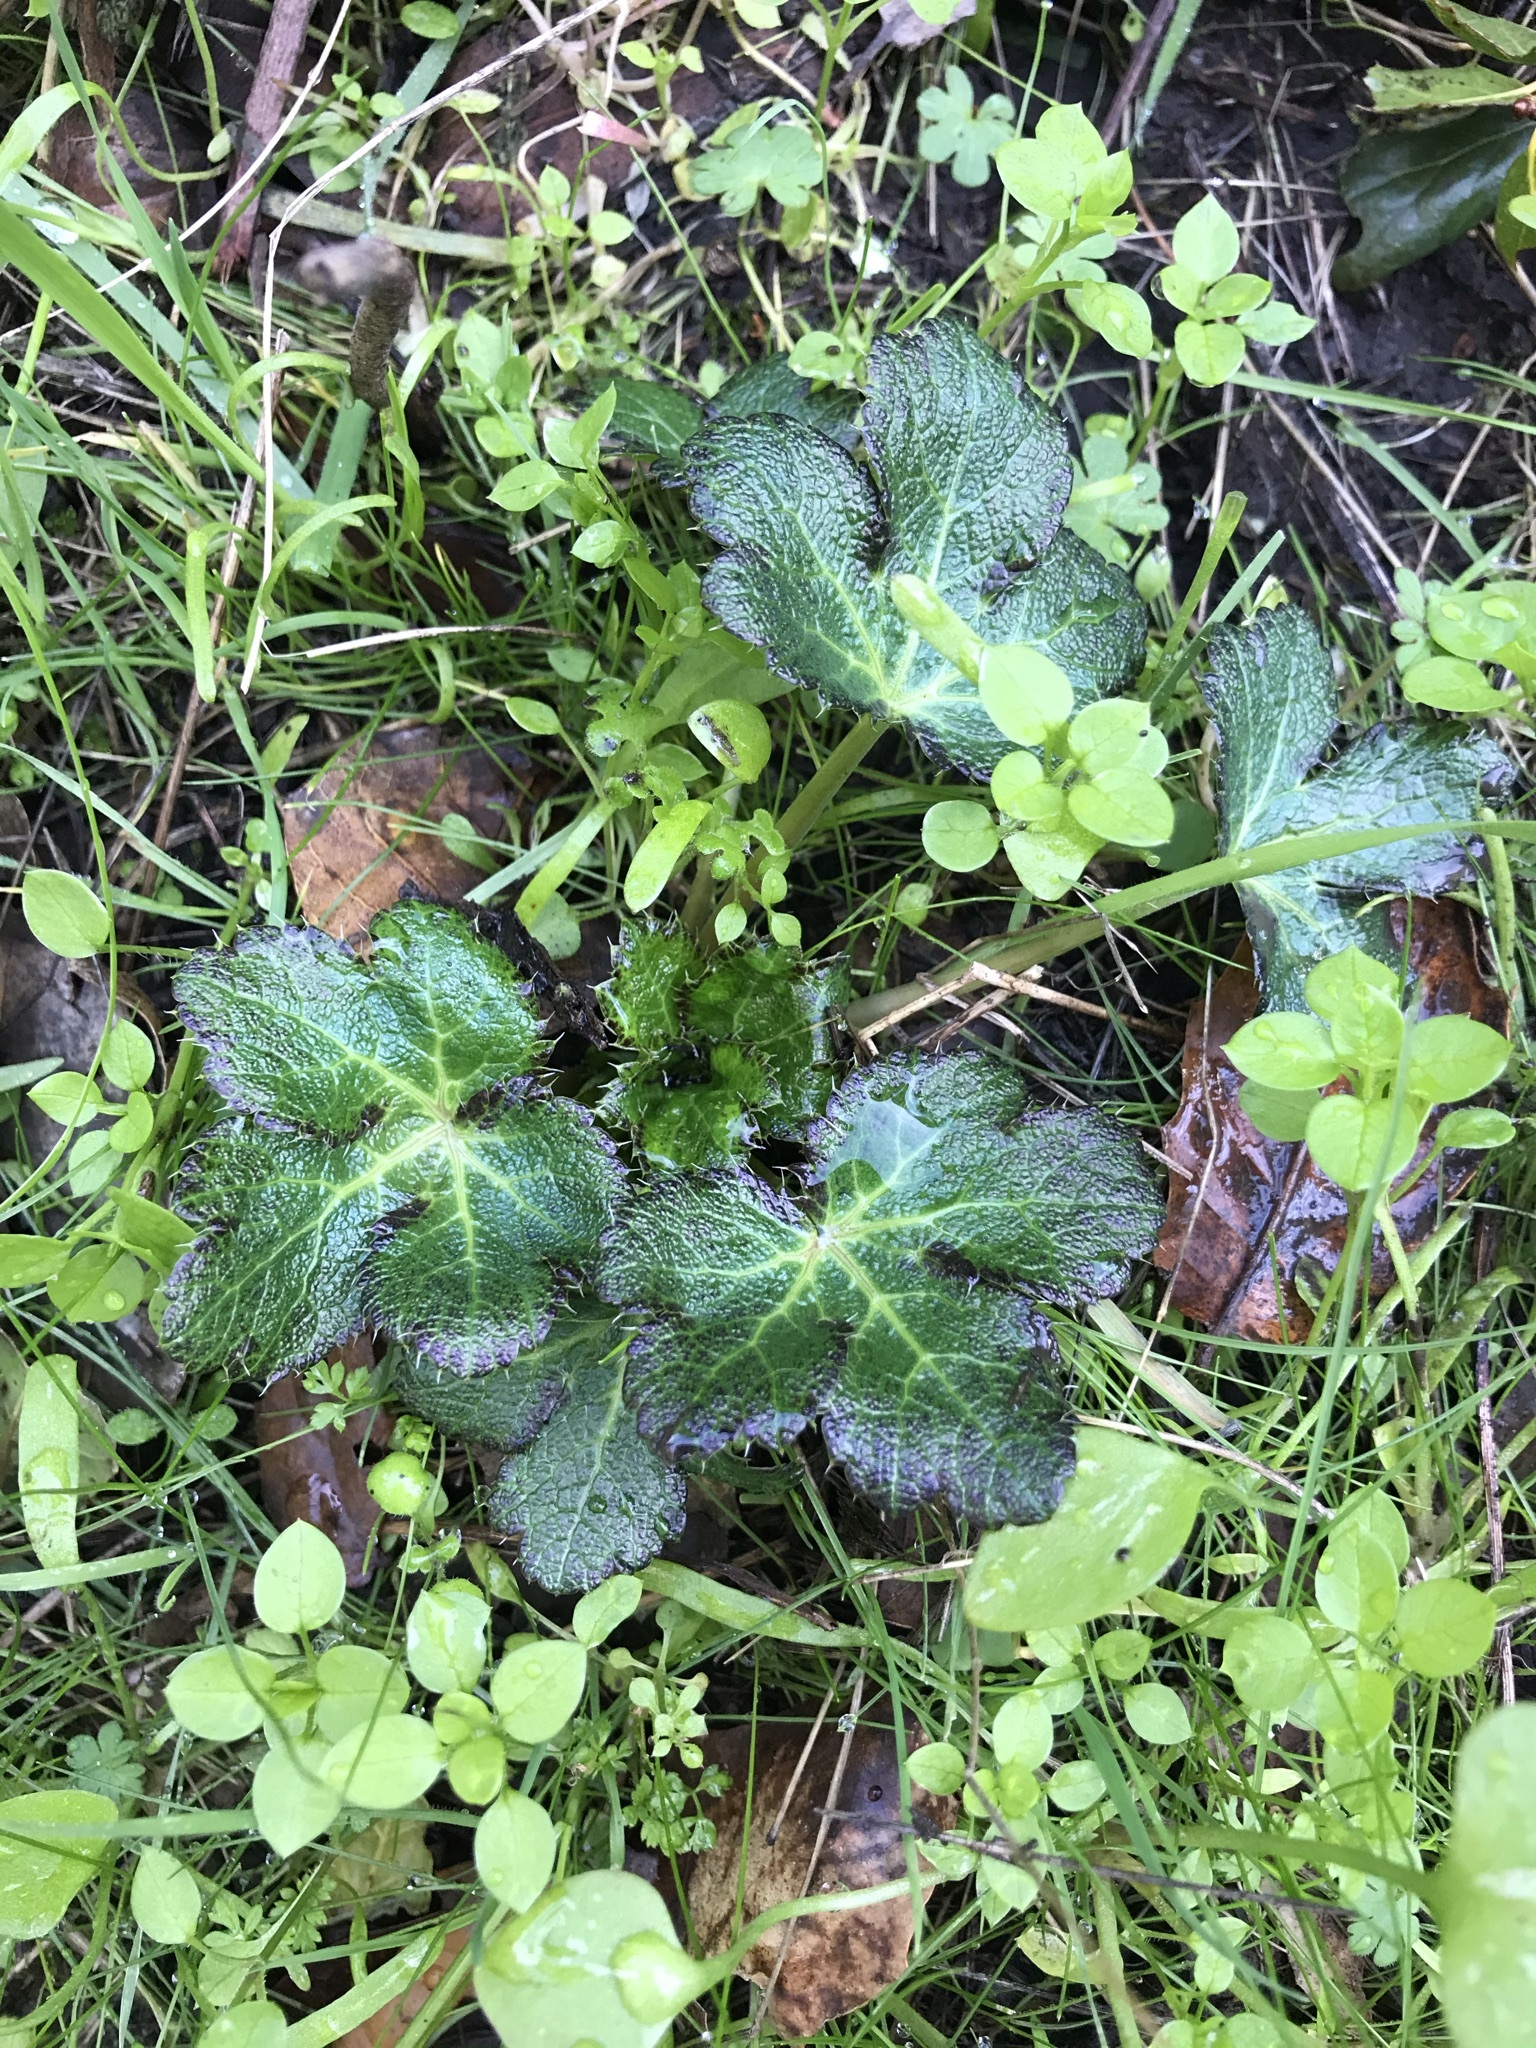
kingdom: Plantae
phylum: Tracheophyta
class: Magnoliopsida
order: Apiales
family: Apiaceae
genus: Sanicula
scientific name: Sanicula crassicaulis
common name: Western snakeroot
